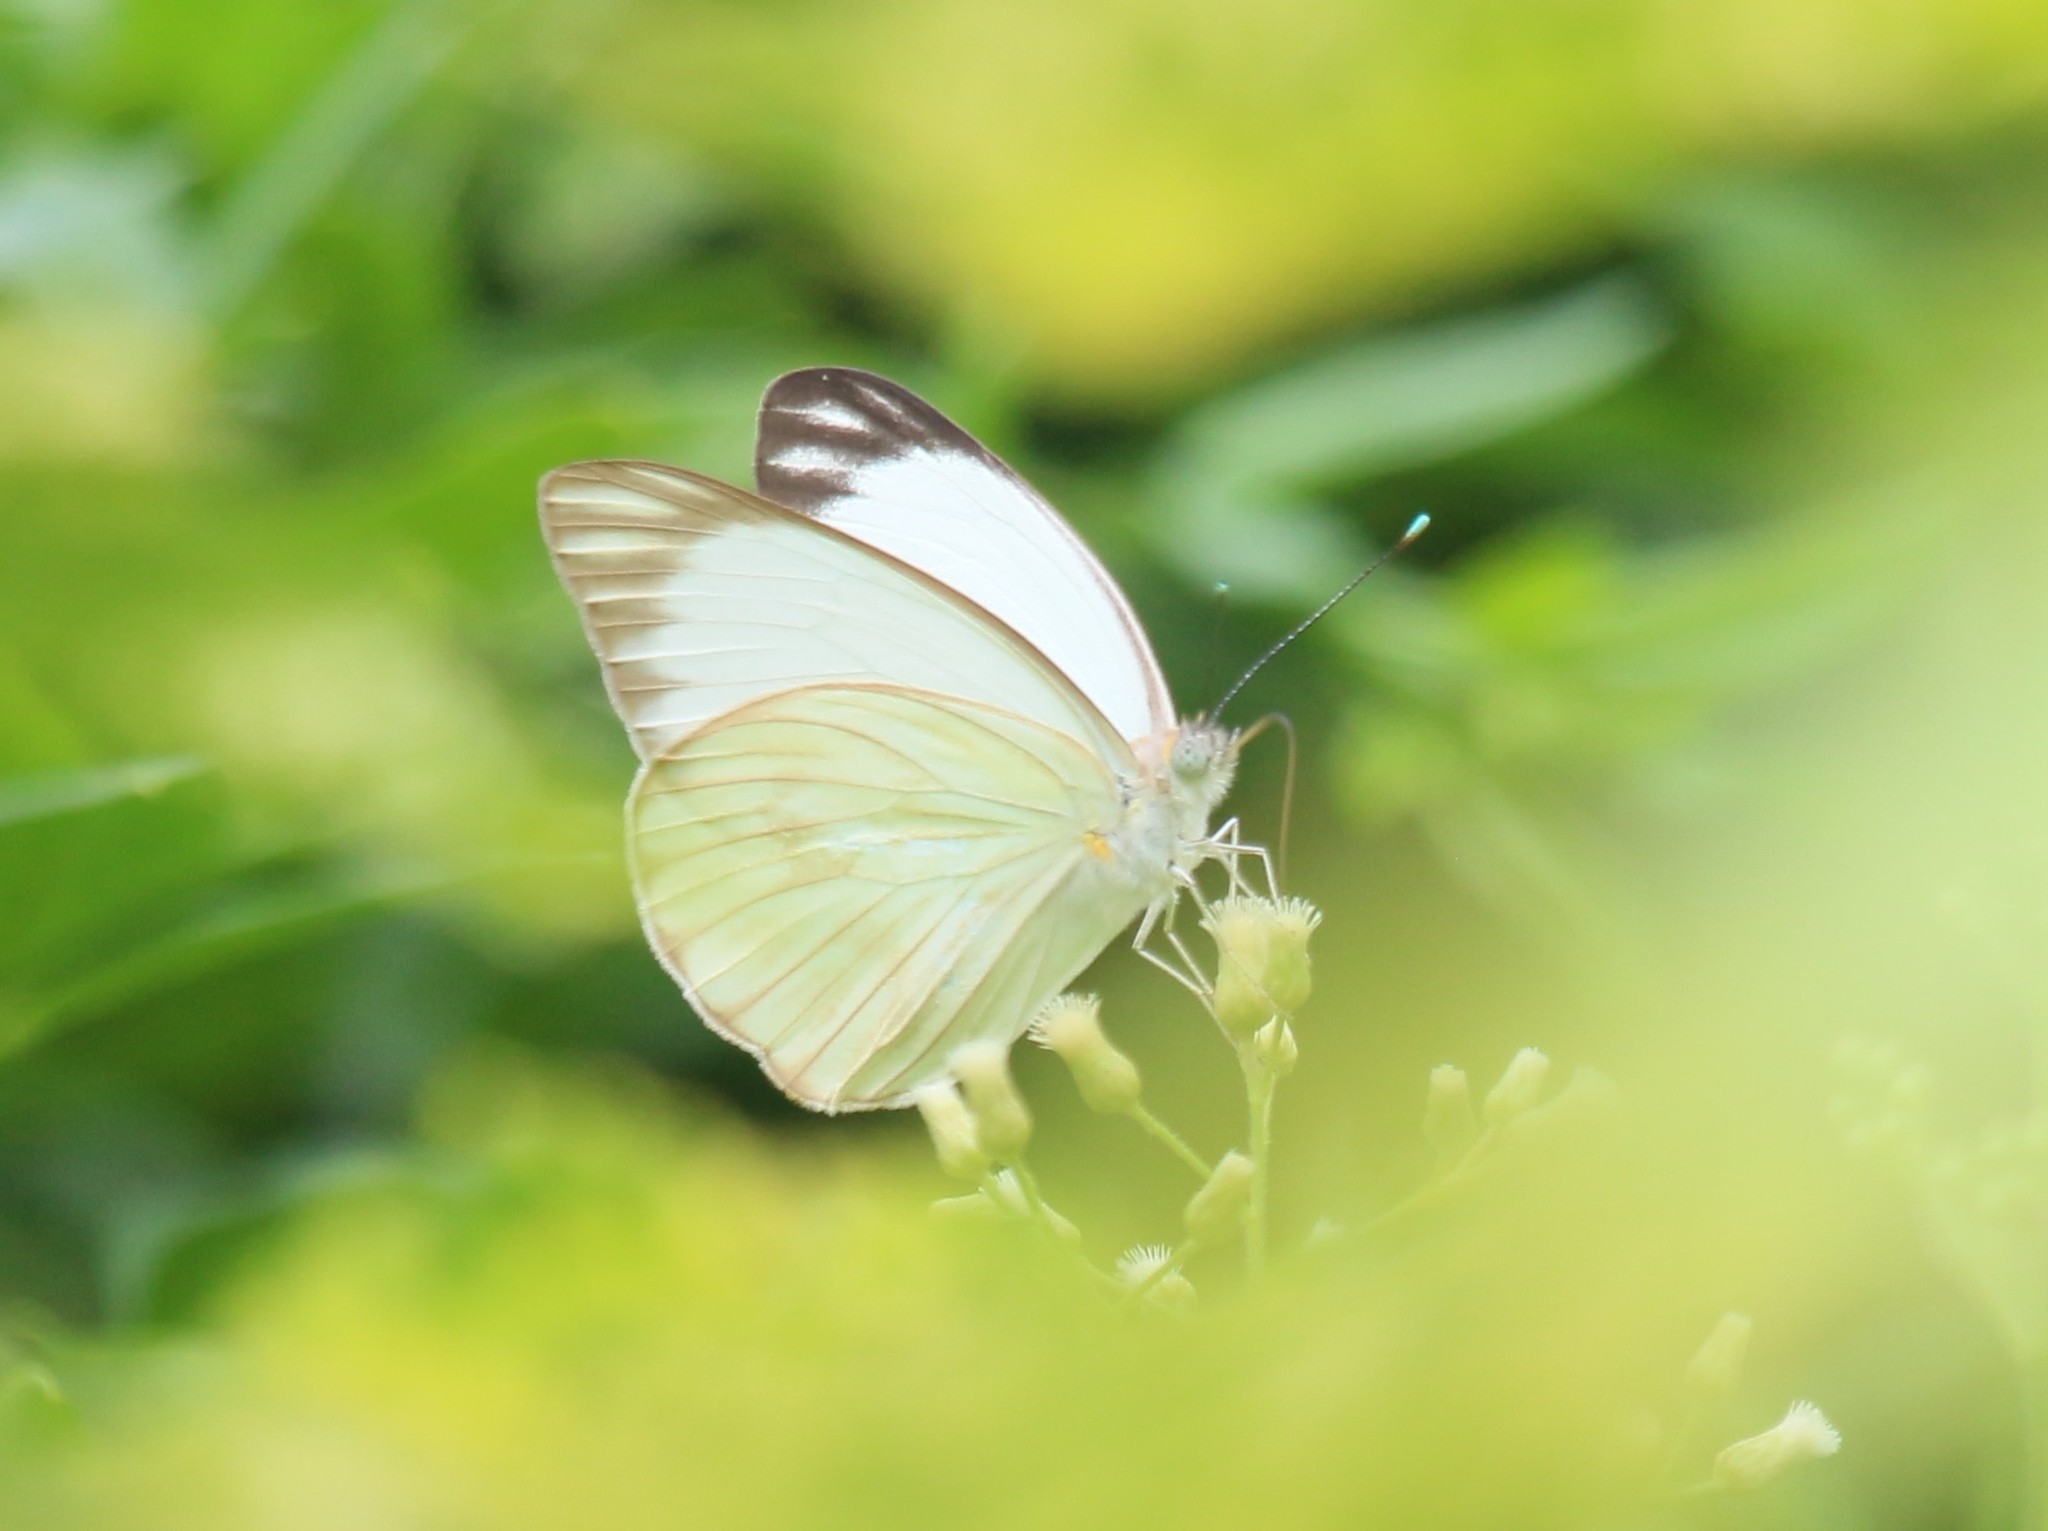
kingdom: Animalia
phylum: Arthropoda
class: Insecta
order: Lepidoptera
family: Pieridae
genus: Ascia
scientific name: Ascia monuste
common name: Great southern white
